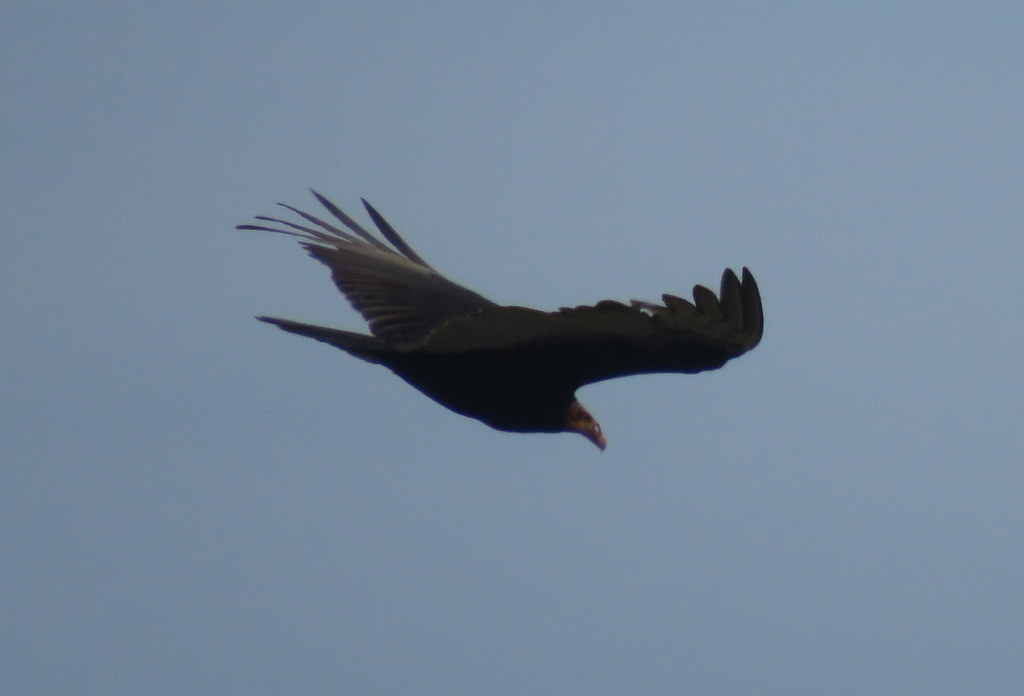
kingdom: Animalia
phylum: Chordata
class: Aves
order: Accipitriformes
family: Cathartidae
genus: Cathartes
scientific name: Cathartes burrovianus
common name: Lesser yellow-headed vulture
